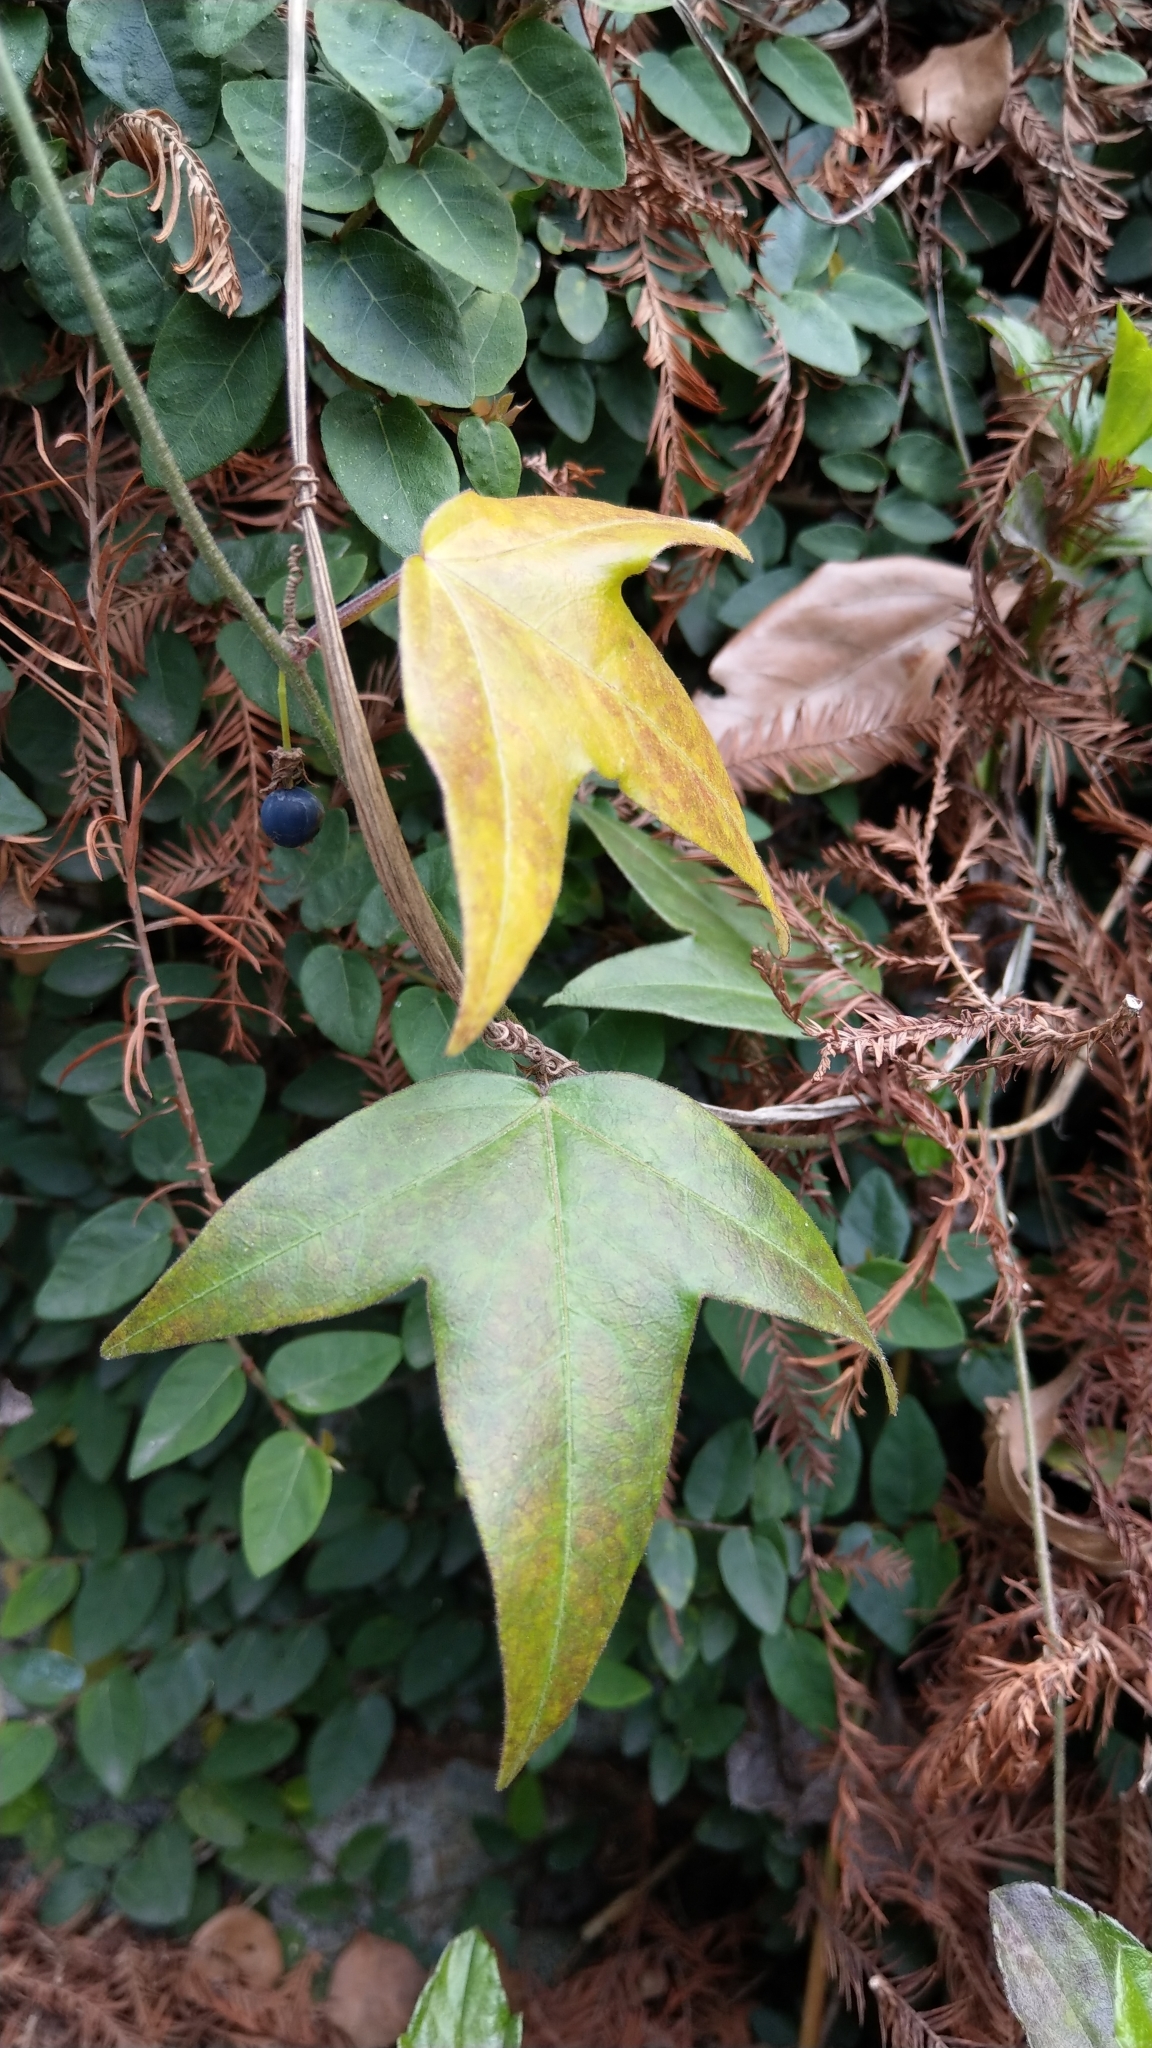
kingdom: Plantae
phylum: Tracheophyta
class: Magnoliopsida
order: Malpighiales
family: Passifloraceae
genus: Passiflora
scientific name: Passiflora suberosa
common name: Wild passionfruit
